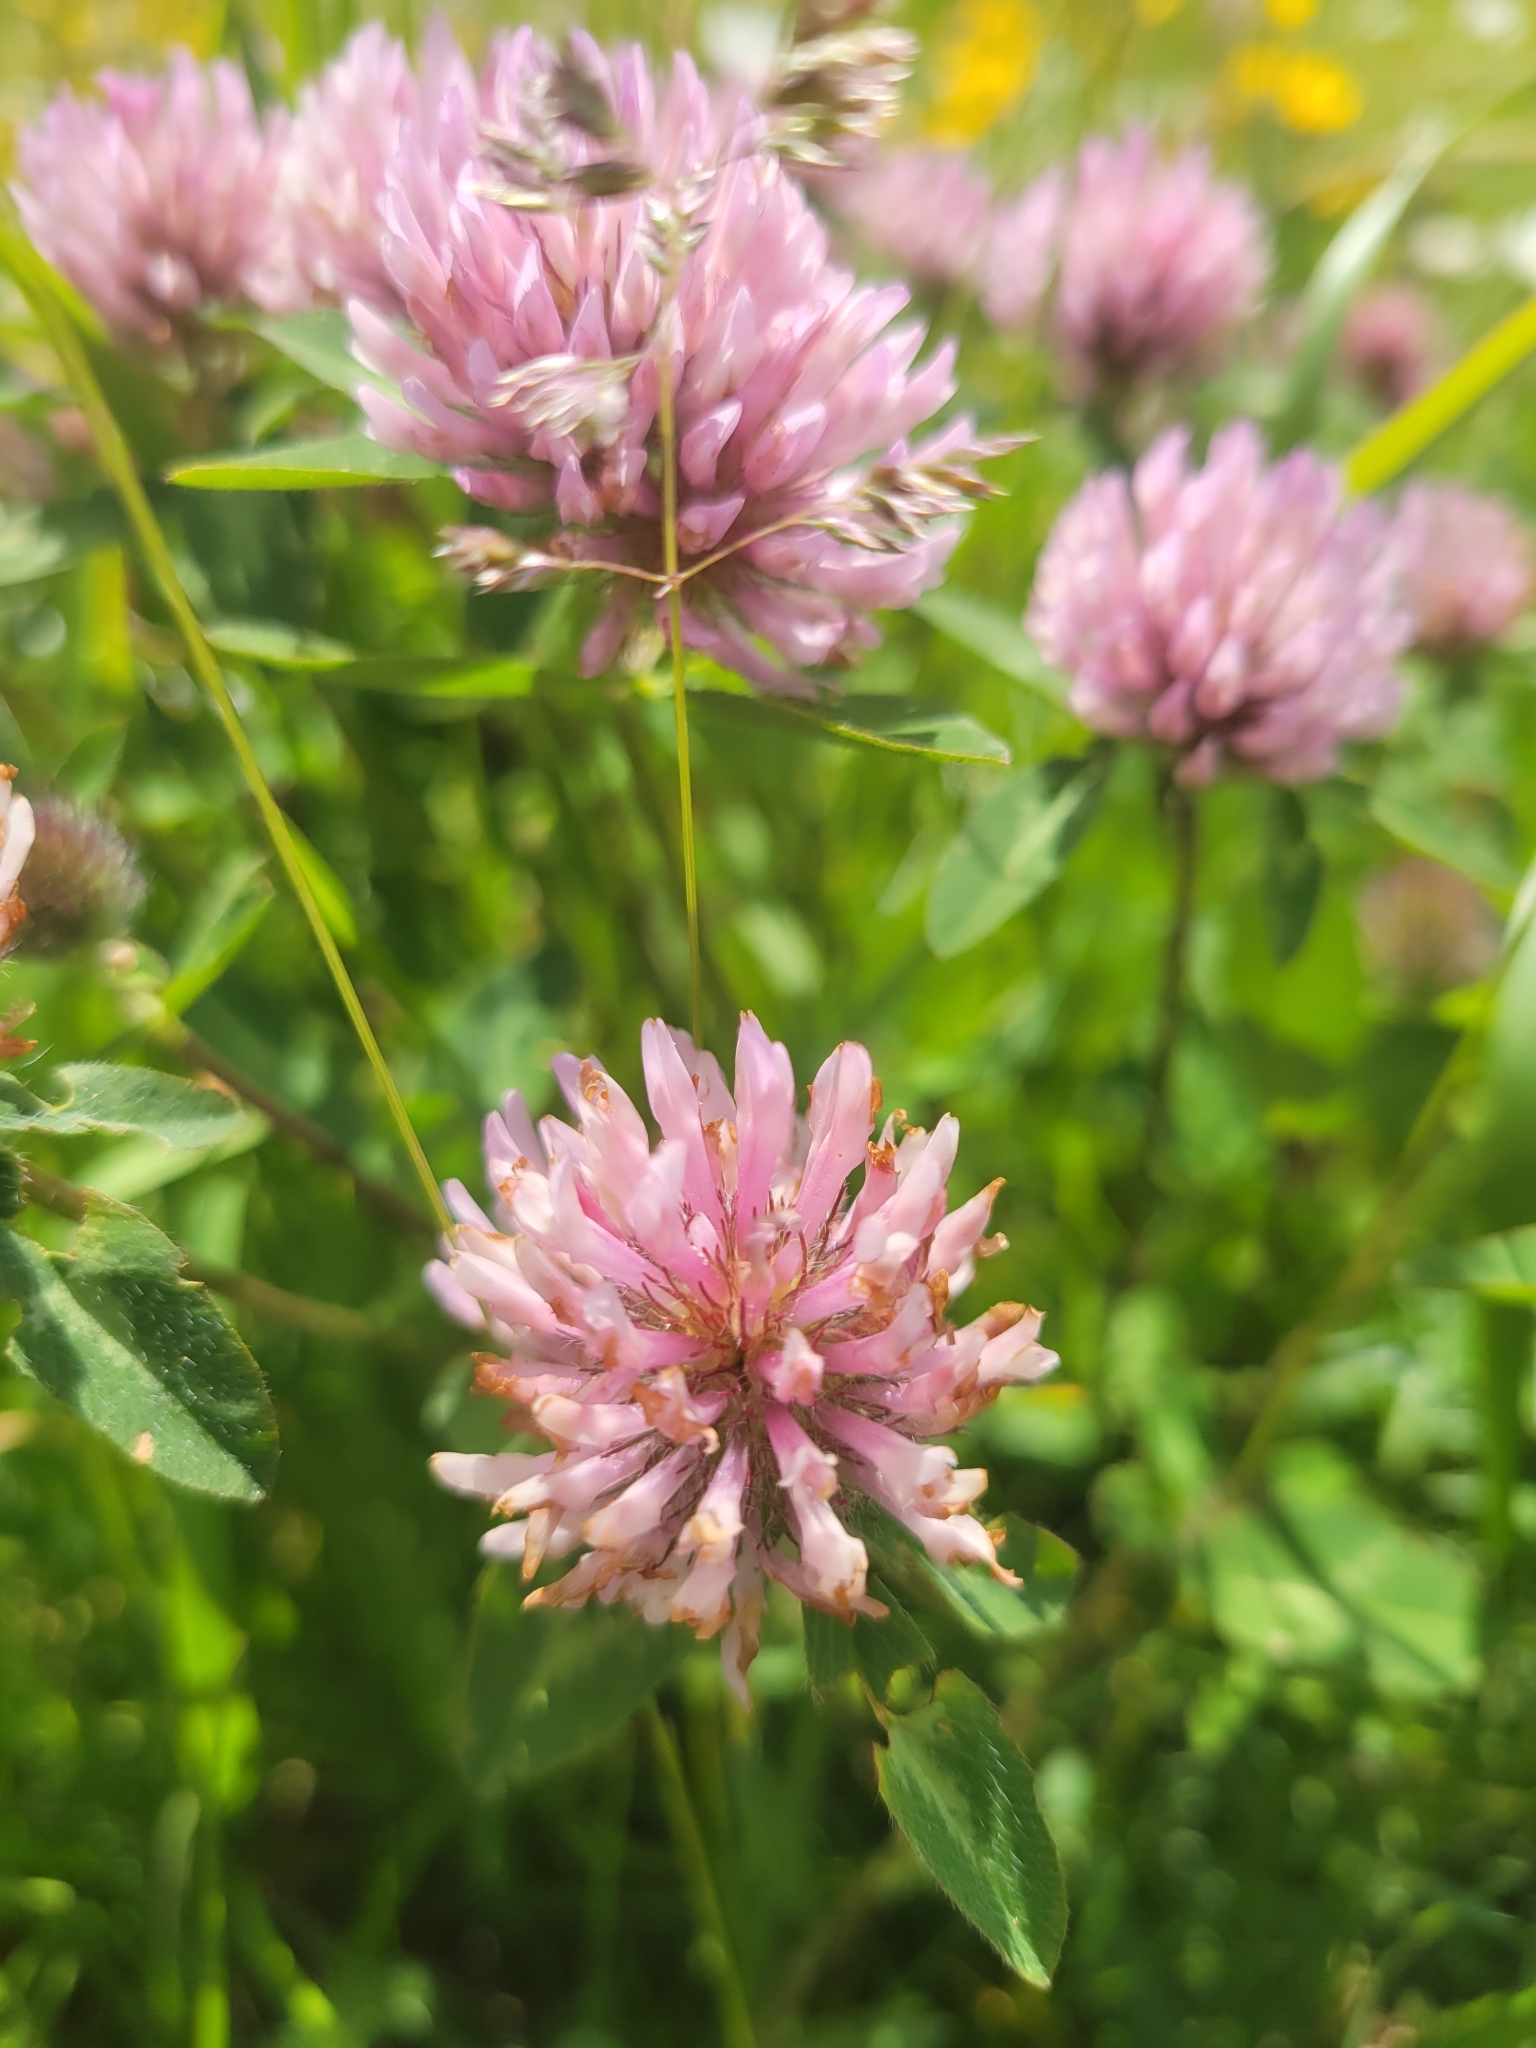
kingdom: Plantae
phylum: Tracheophyta
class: Magnoliopsida
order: Fabales
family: Fabaceae
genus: Trifolium
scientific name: Trifolium pratense
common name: Red clover
